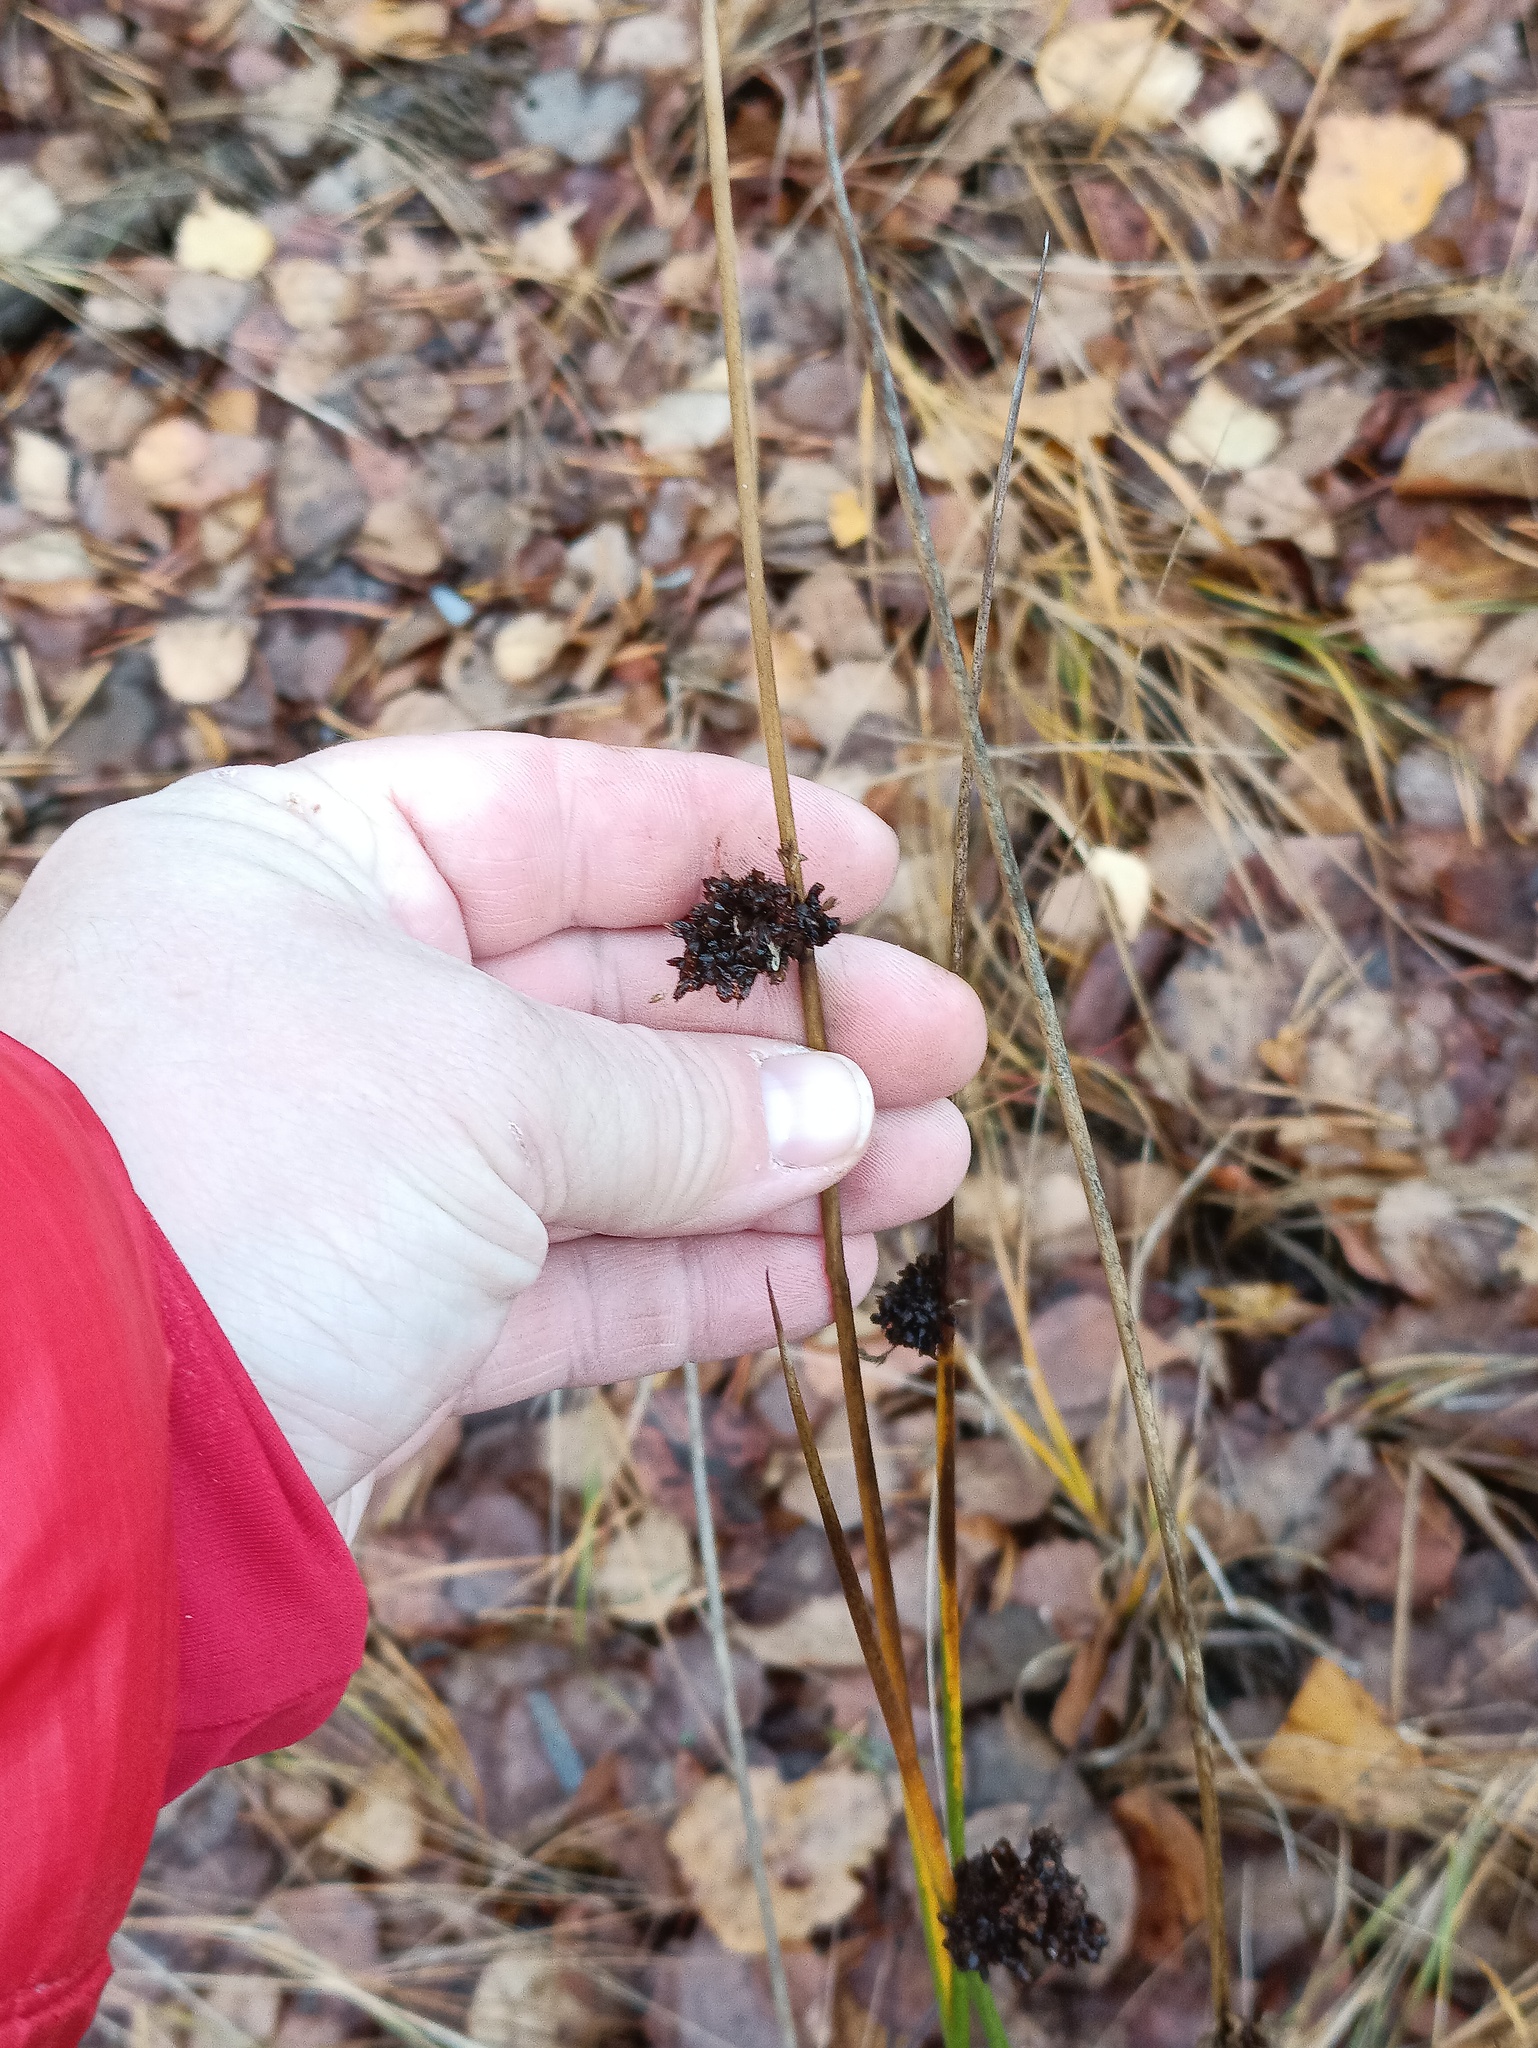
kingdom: Plantae
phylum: Tracheophyta
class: Liliopsida
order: Poales
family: Juncaceae
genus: Juncus
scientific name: Juncus effusus
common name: Soft rush
